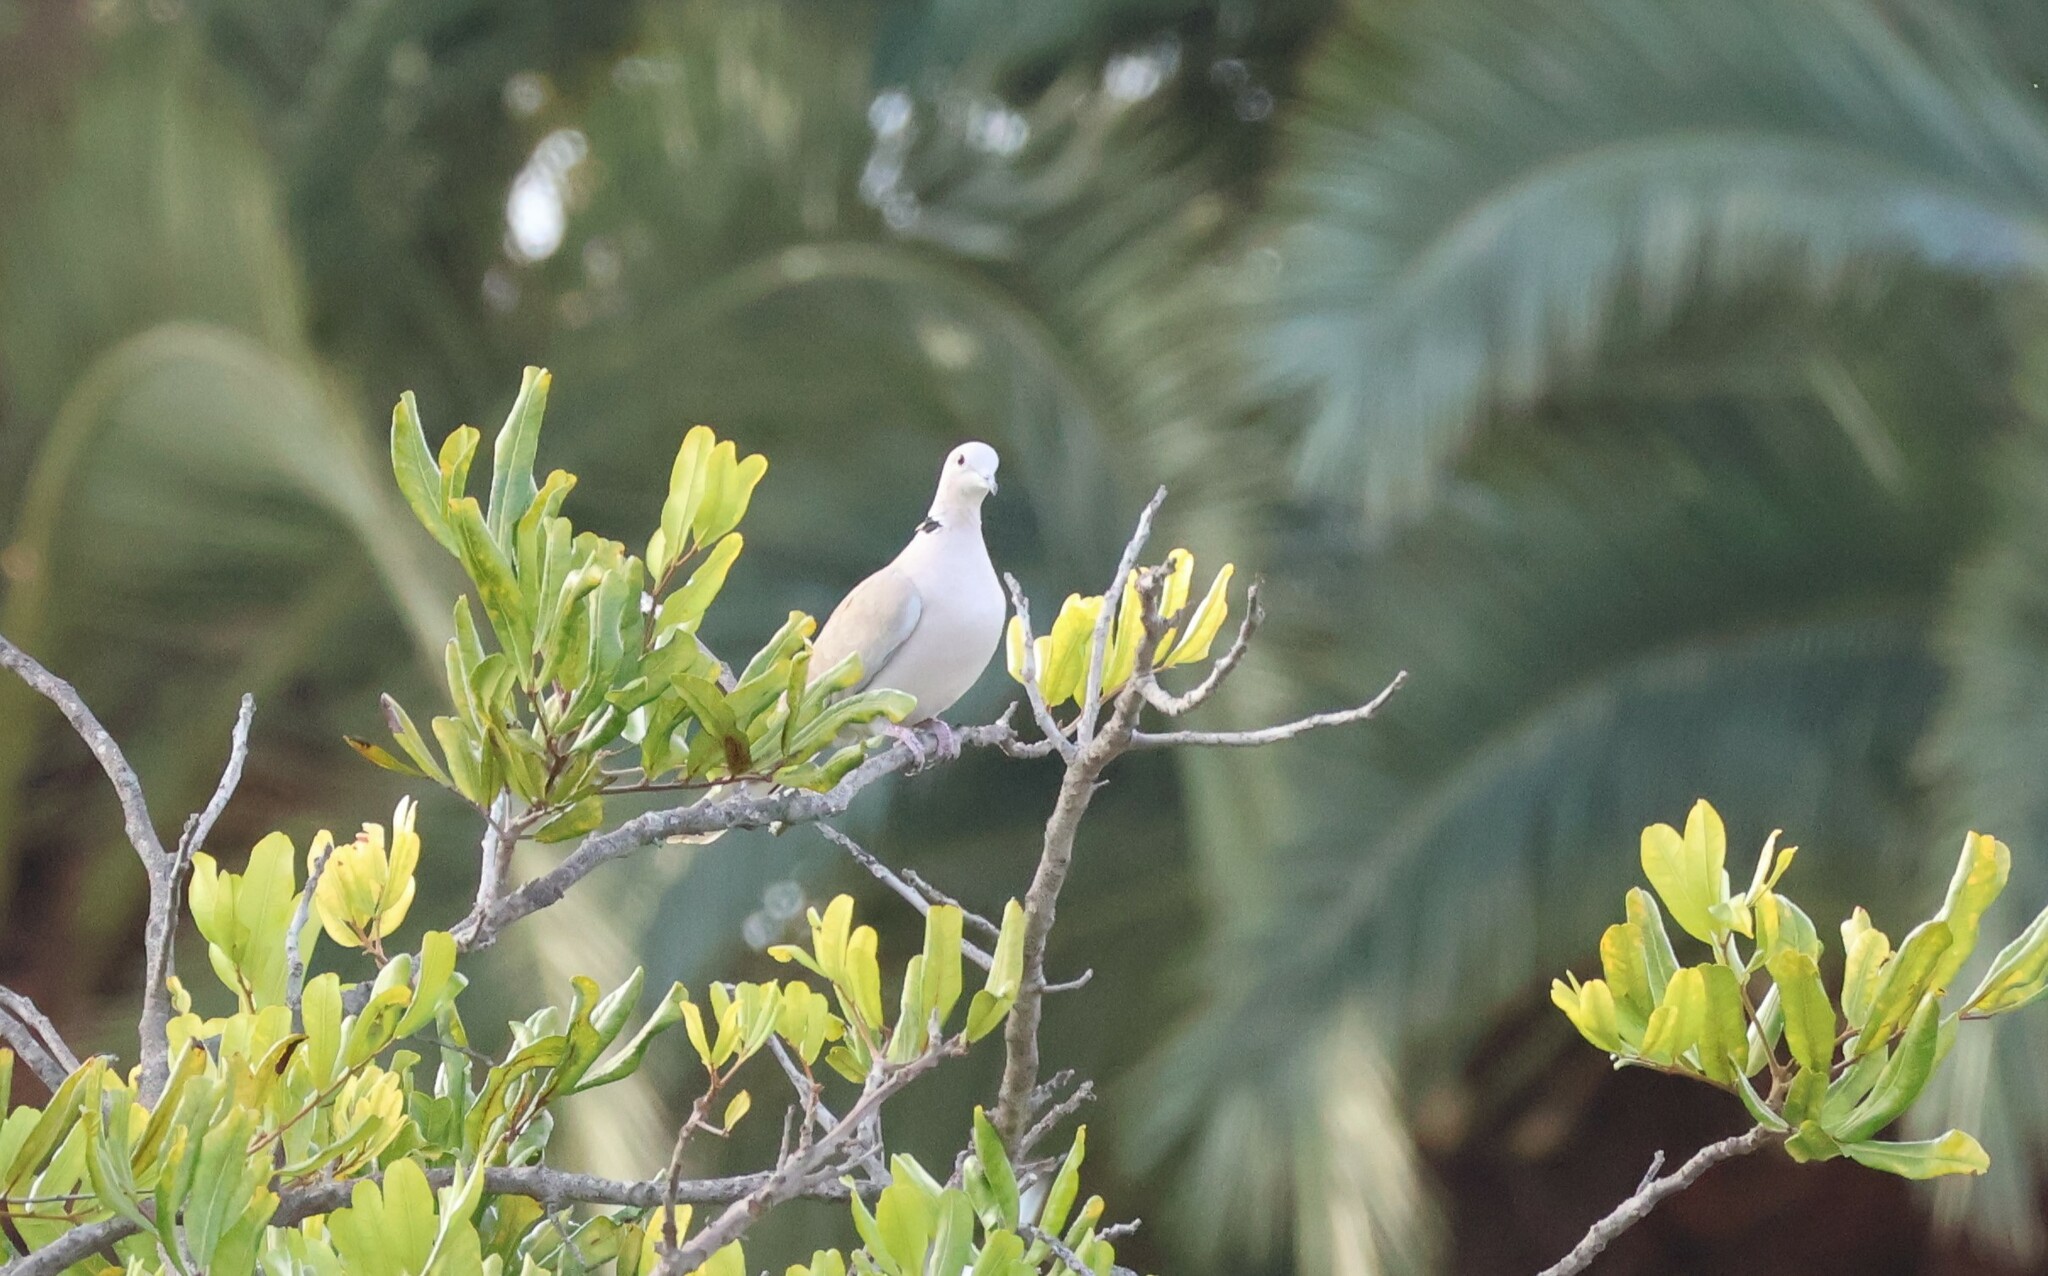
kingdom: Animalia
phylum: Chordata
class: Aves
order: Columbiformes
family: Columbidae
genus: Streptopelia
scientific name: Streptopelia decaocto
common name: Eurasian collared dove
